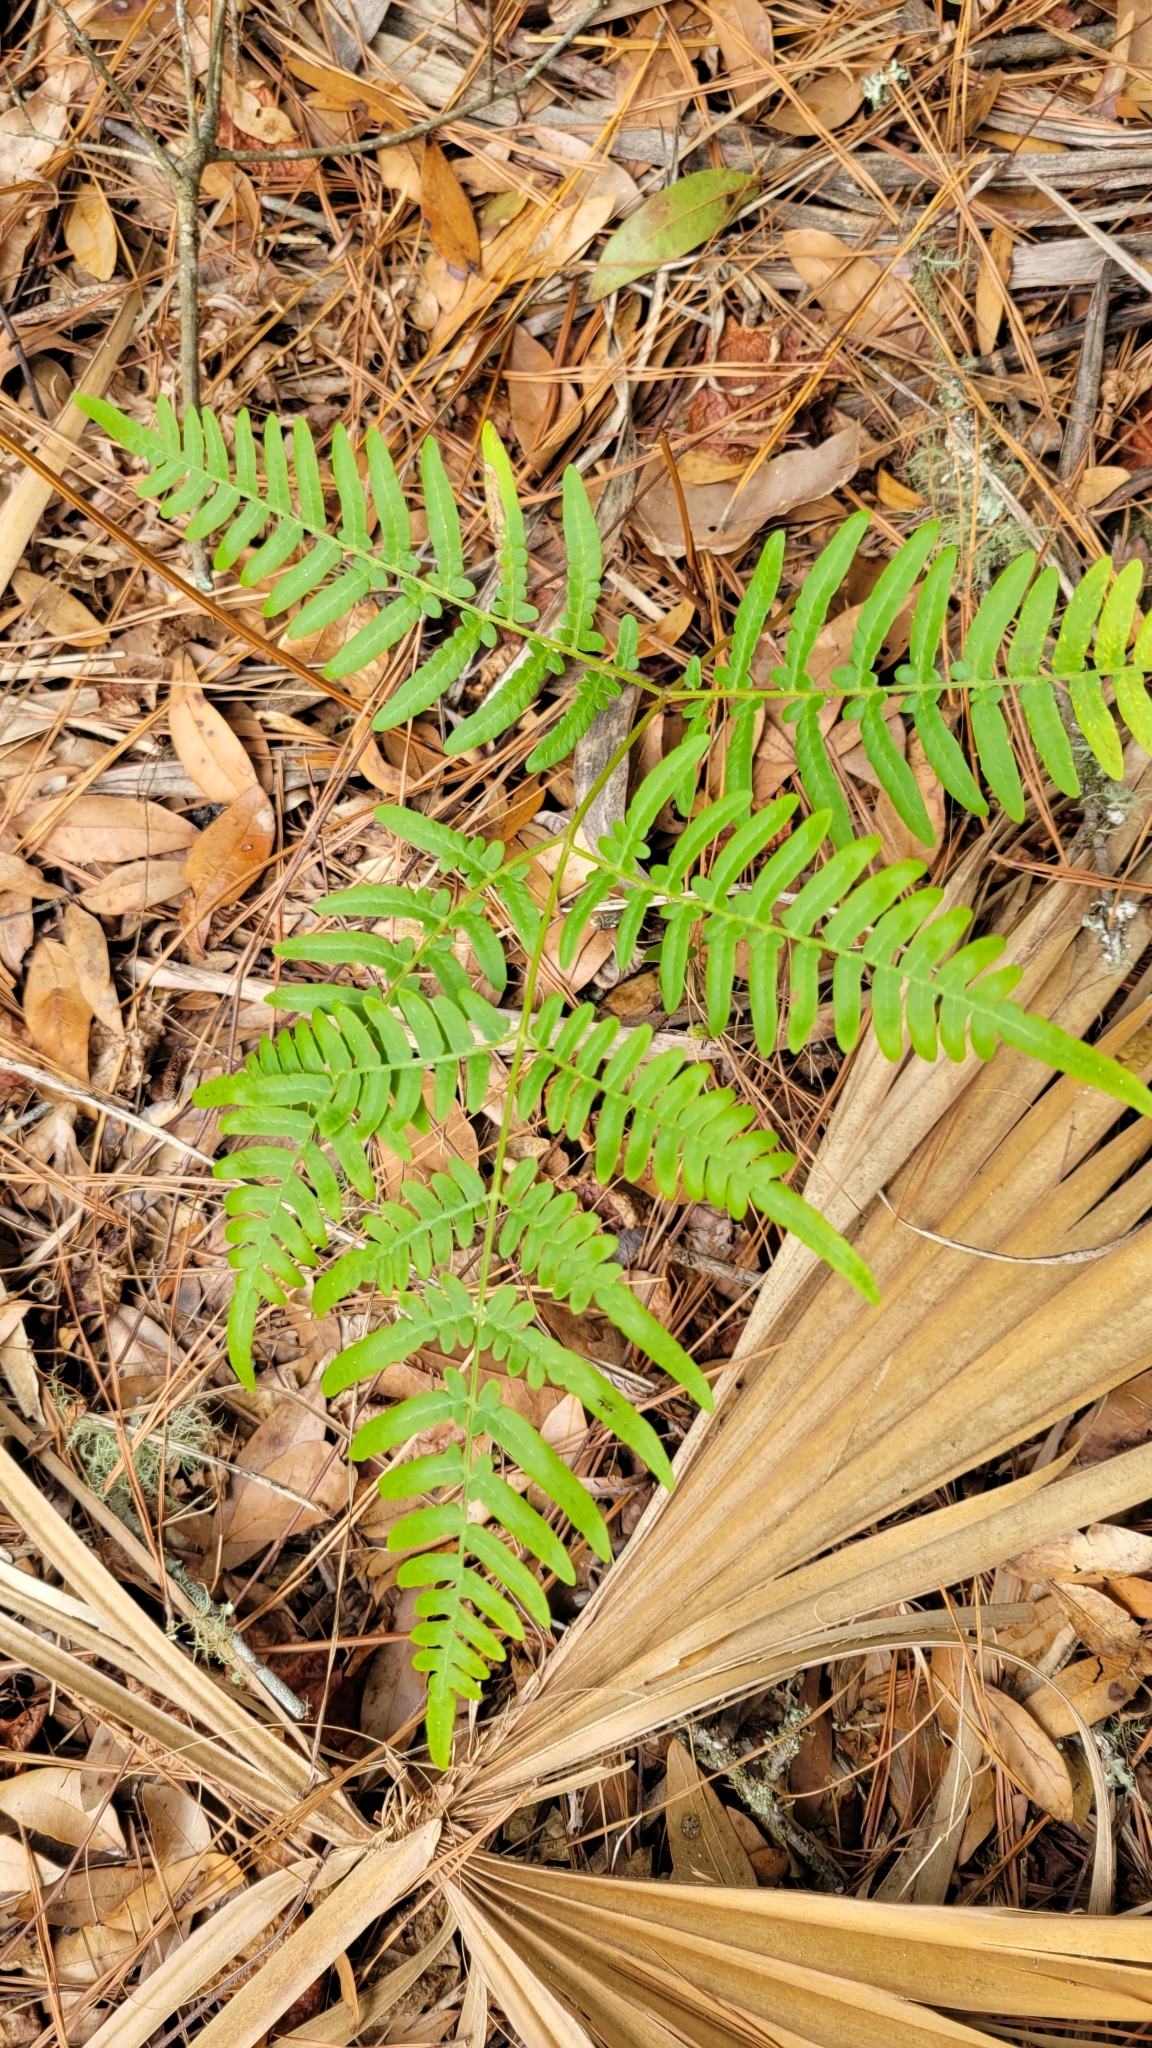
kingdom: Plantae
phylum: Tracheophyta
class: Polypodiopsida
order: Polypodiales
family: Dennstaedtiaceae
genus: Pteridium
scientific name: Pteridium
